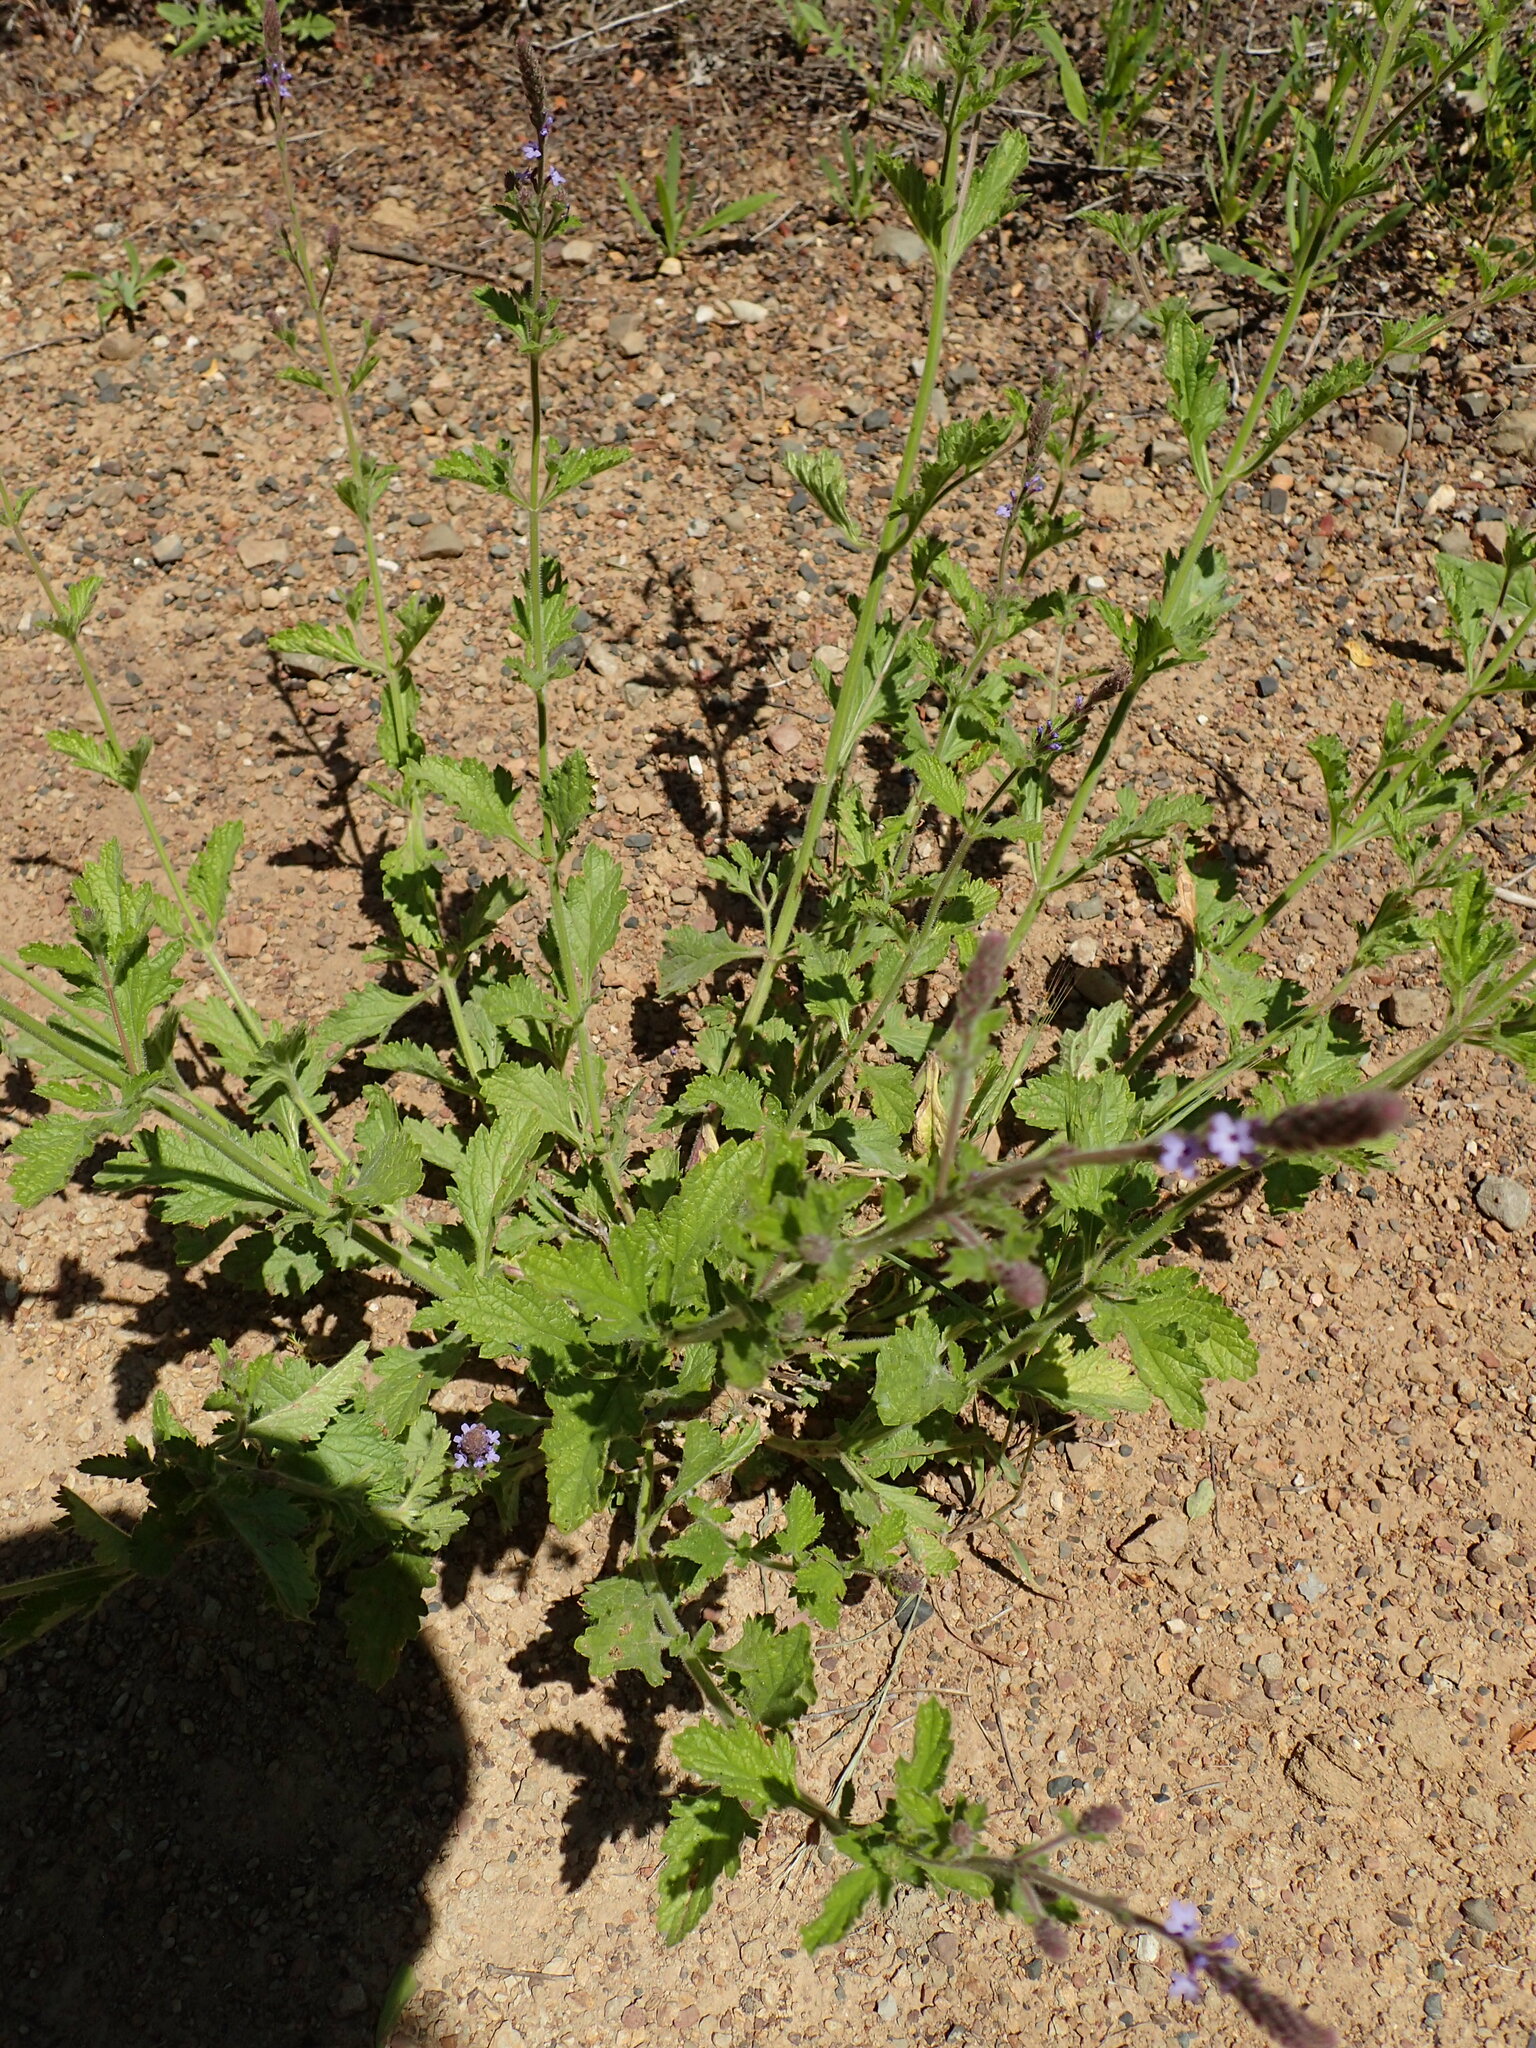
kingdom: Plantae
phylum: Tracheophyta
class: Magnoliopsida
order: Lamiales
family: Verbenaceae
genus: Verbena
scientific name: Verbena lasiostachys
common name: Vervain
